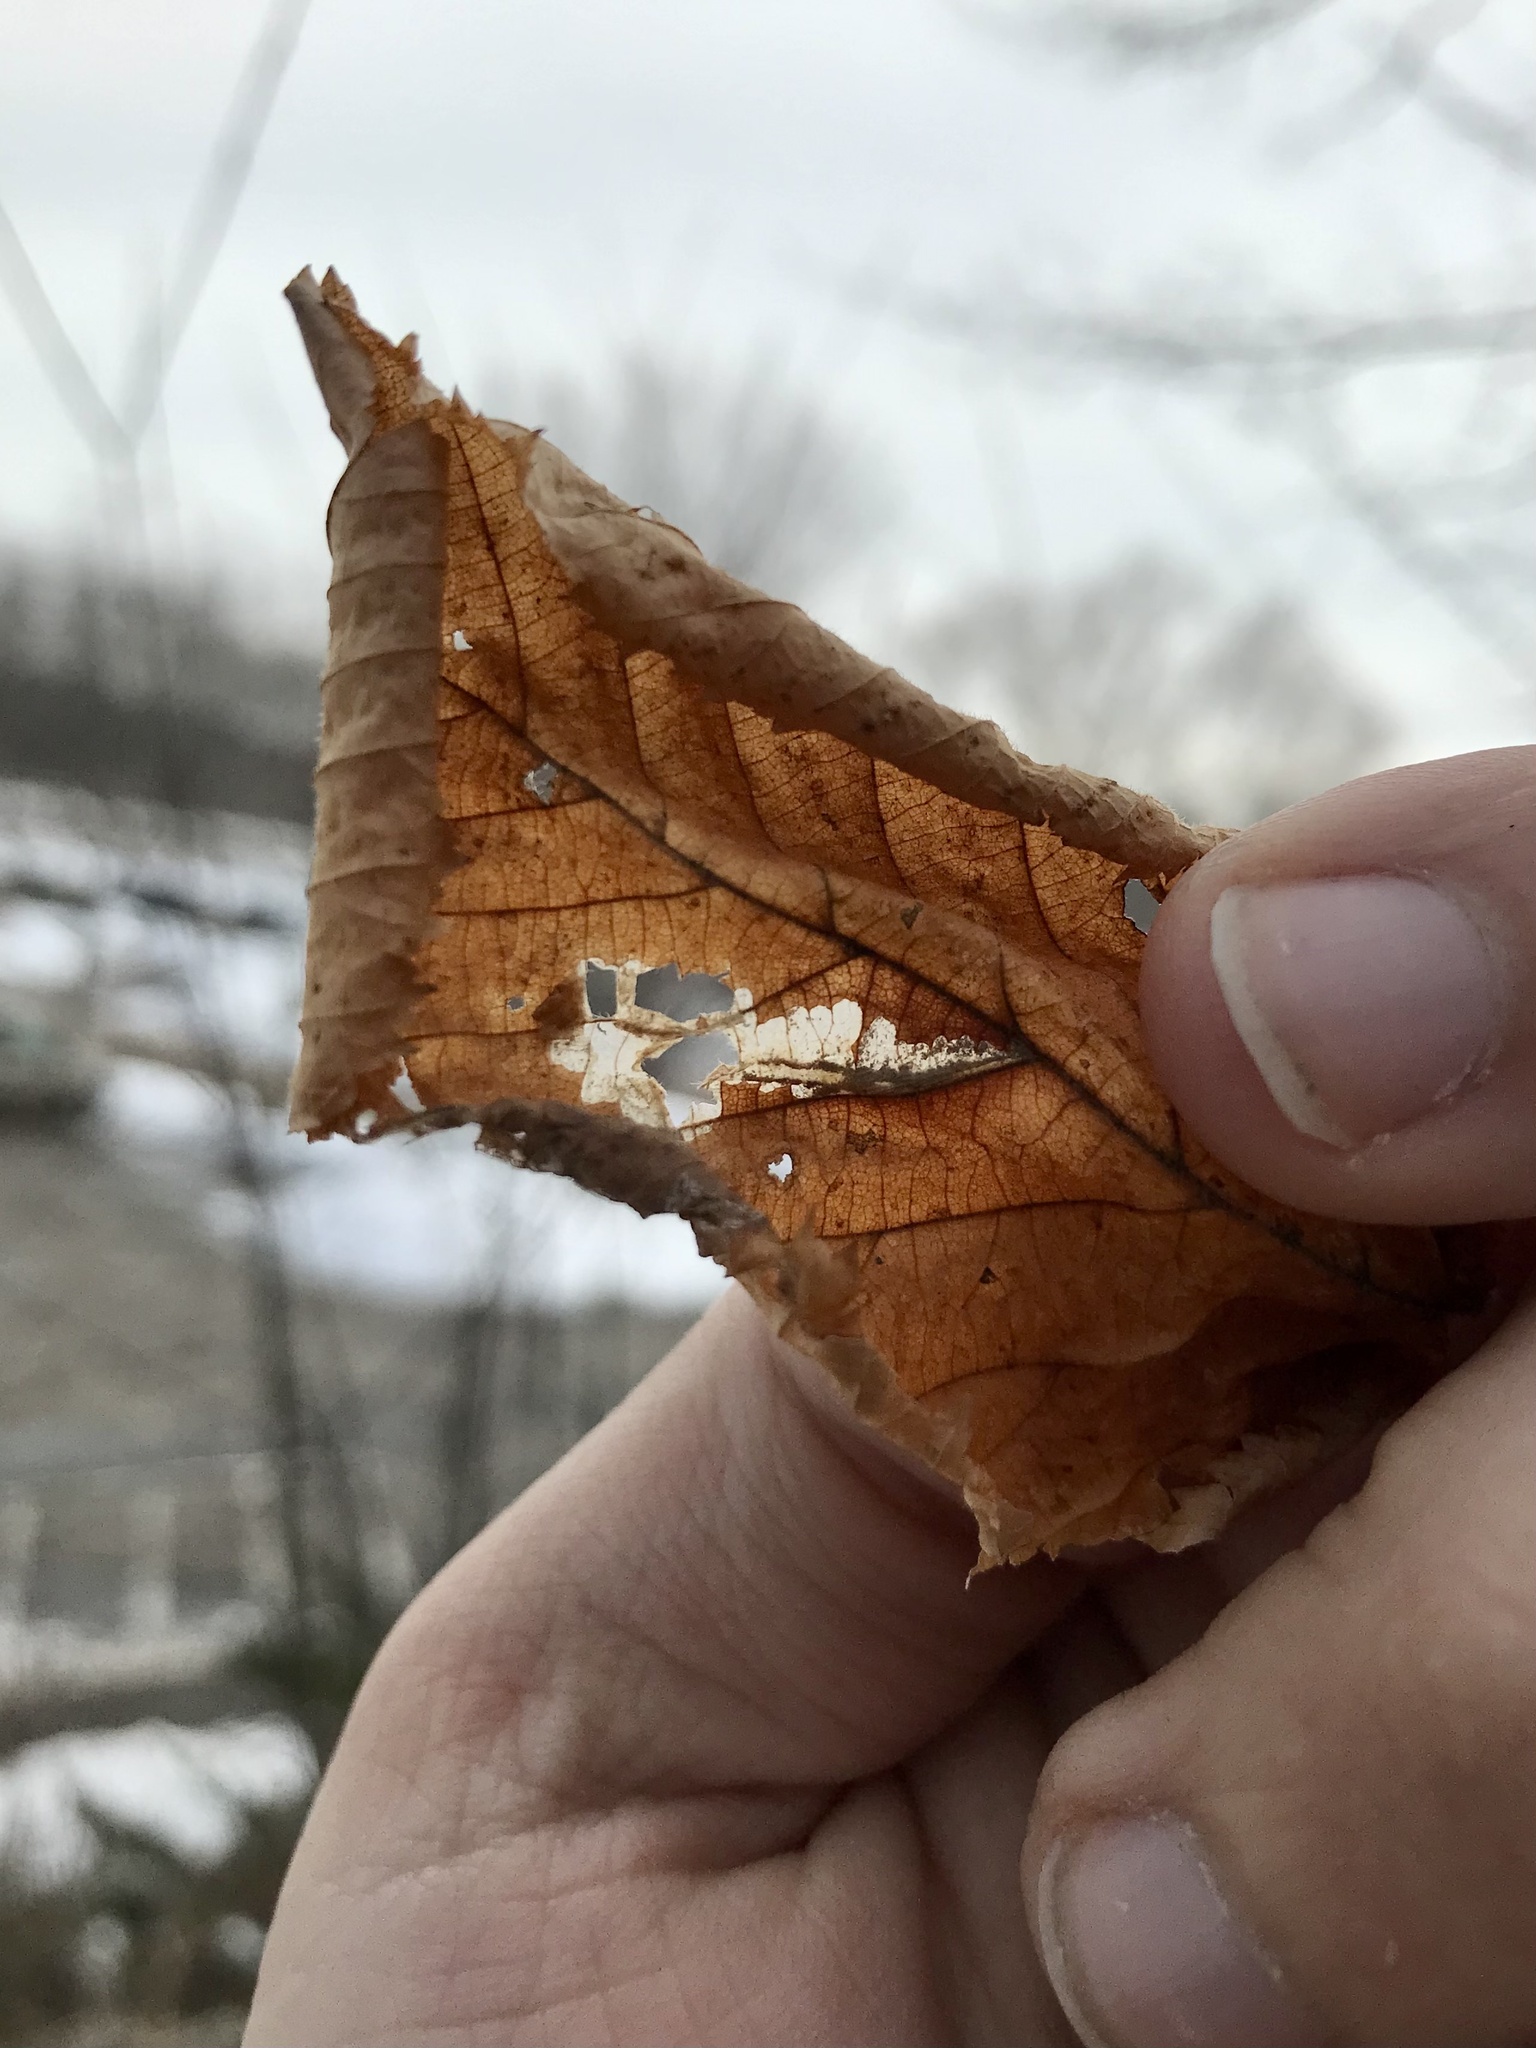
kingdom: Animalia
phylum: Arthropoda
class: Insecta
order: Lepidoptera
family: Cosmopterigidae
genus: Stilbosis
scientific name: Stilbosis ostryaeella
